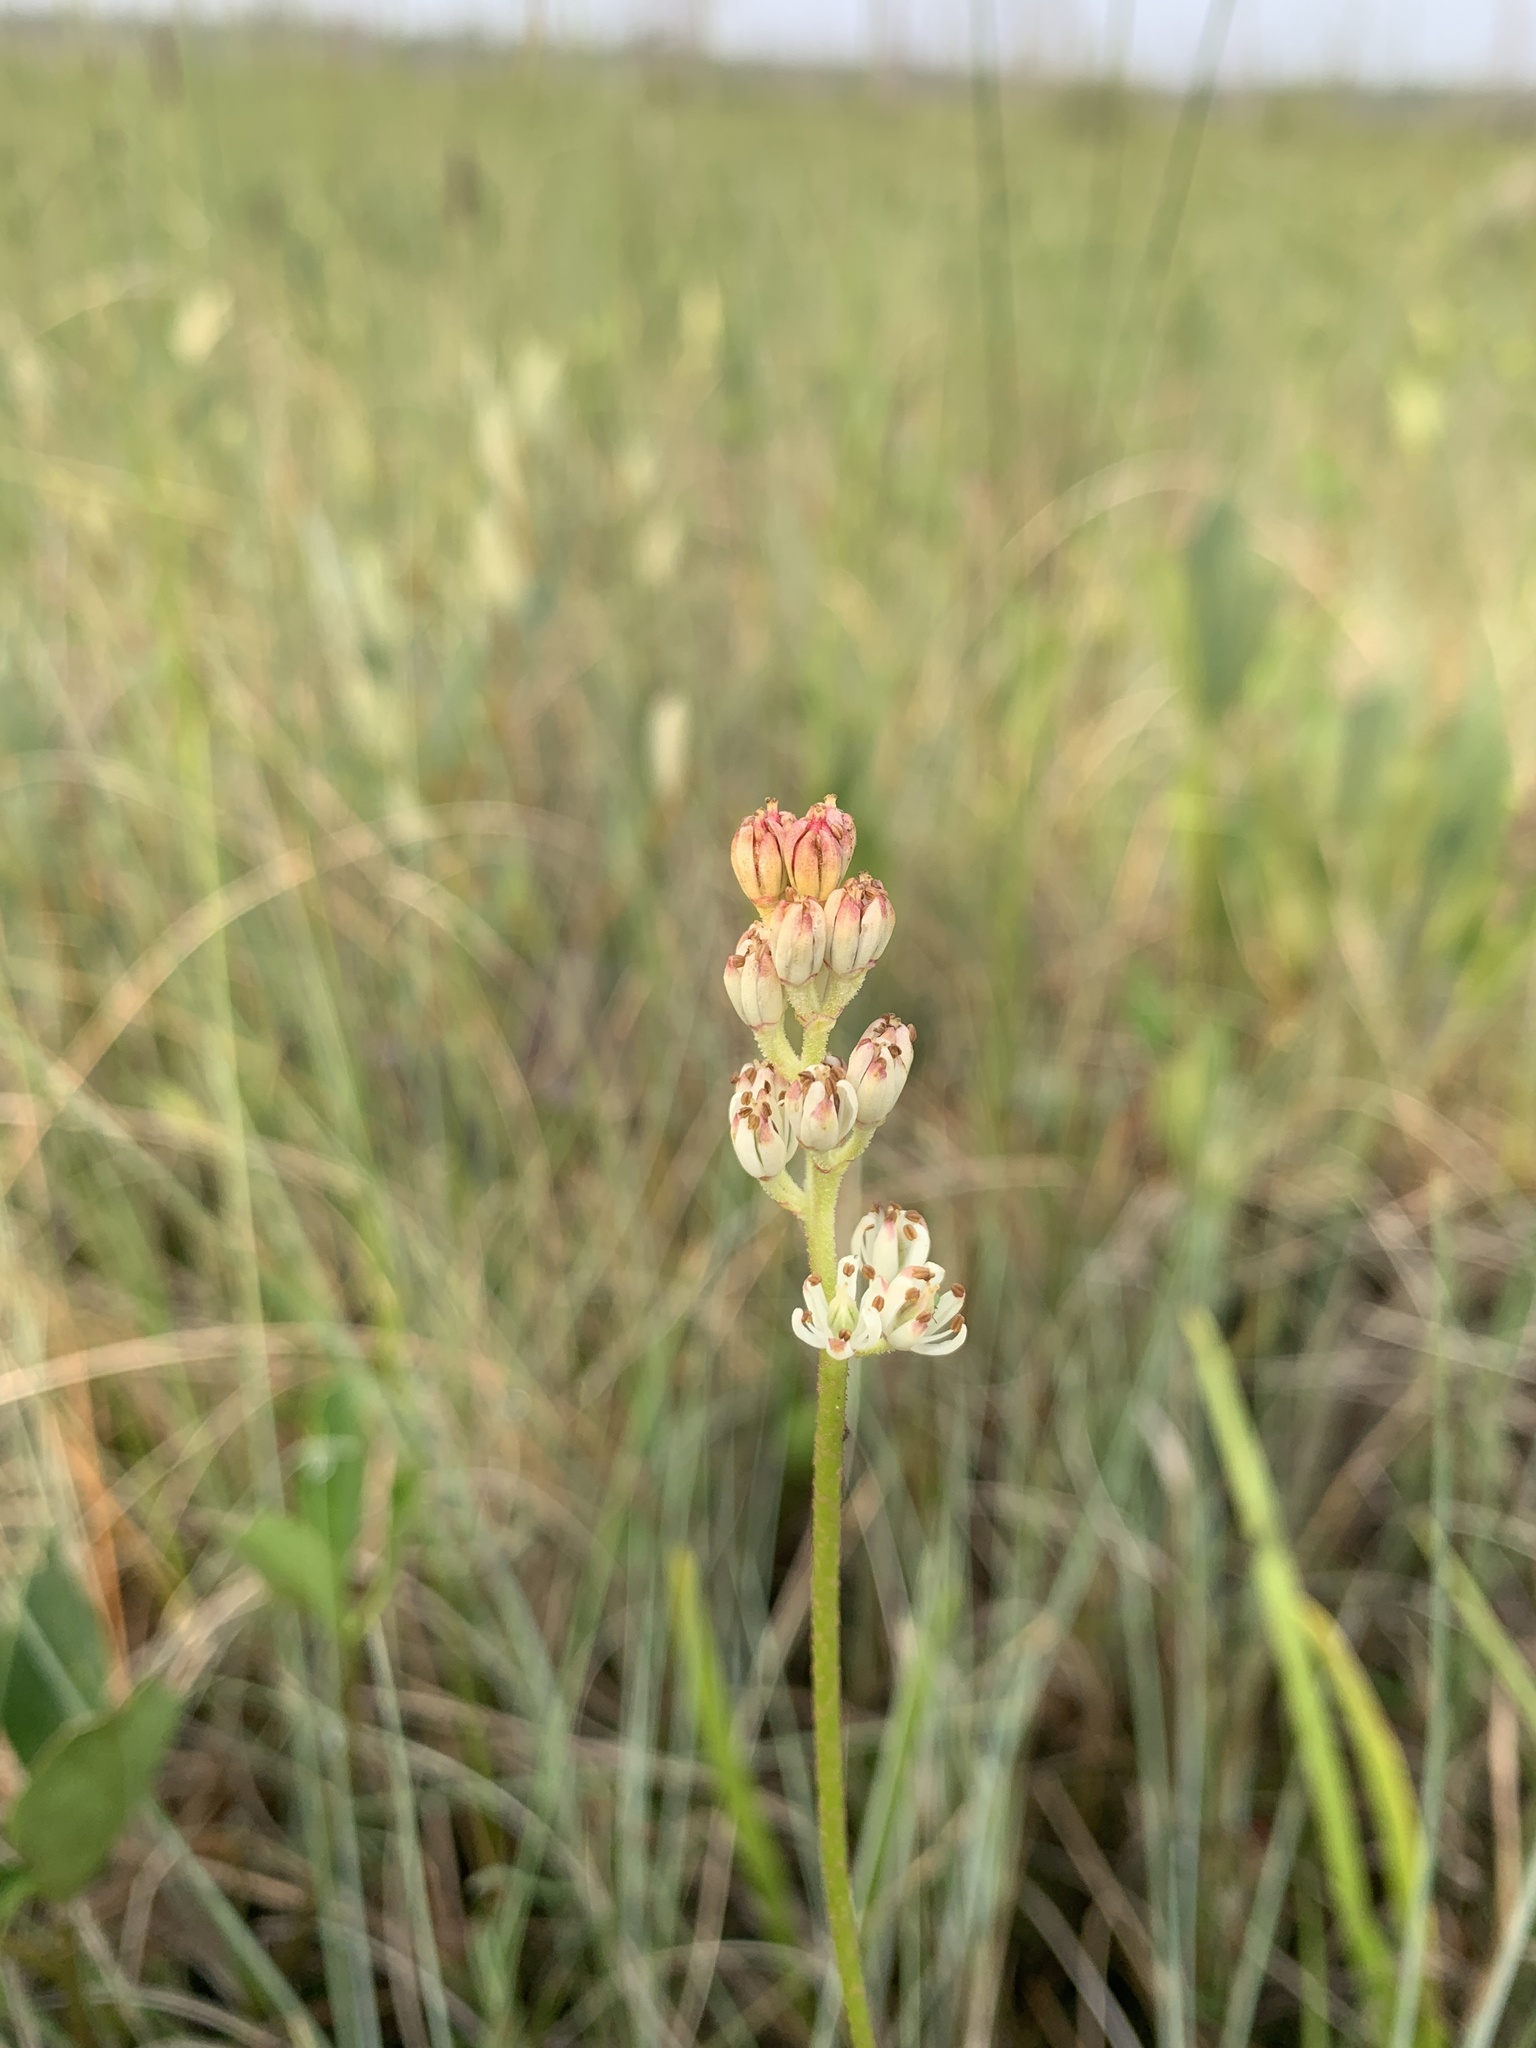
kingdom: Plantae
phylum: Tracheophyta
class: Liliopsida
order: Alismatales
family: Tofieldiaceae
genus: Triantha
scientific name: Triantha glutinosa
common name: Glutinous tofieldia
